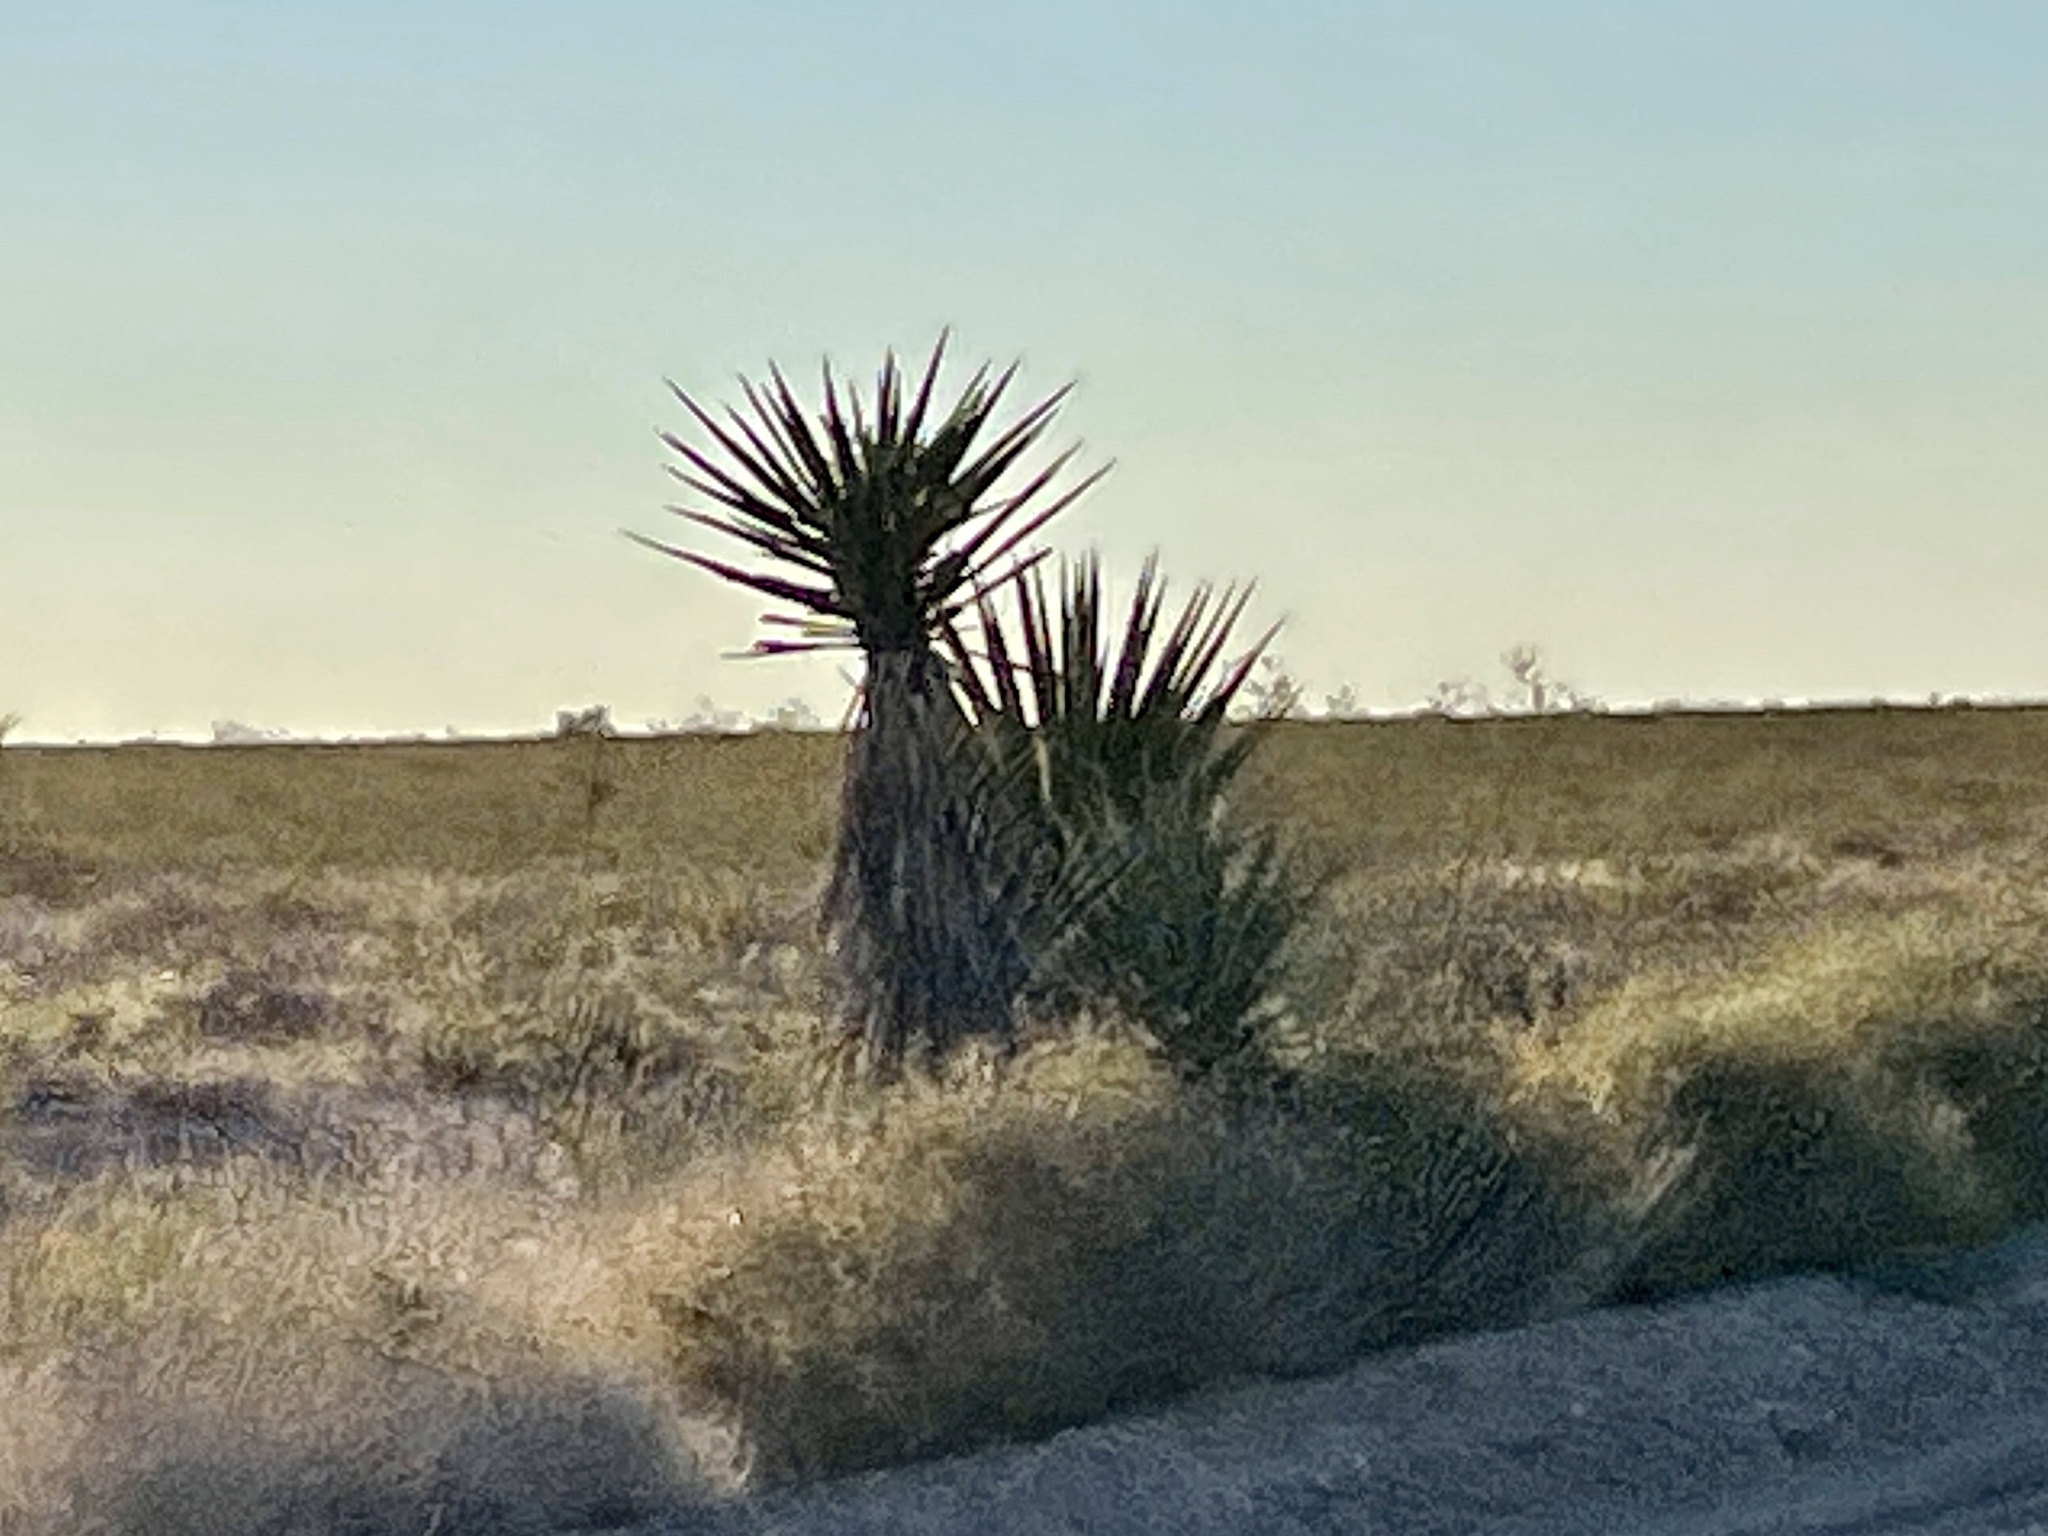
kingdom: Plantae
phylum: Tracheophyta
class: Liliopsida
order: Asparagales
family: Asparagaceae
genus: Yucca
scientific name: Yucca schidigera
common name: Mojave yucca
